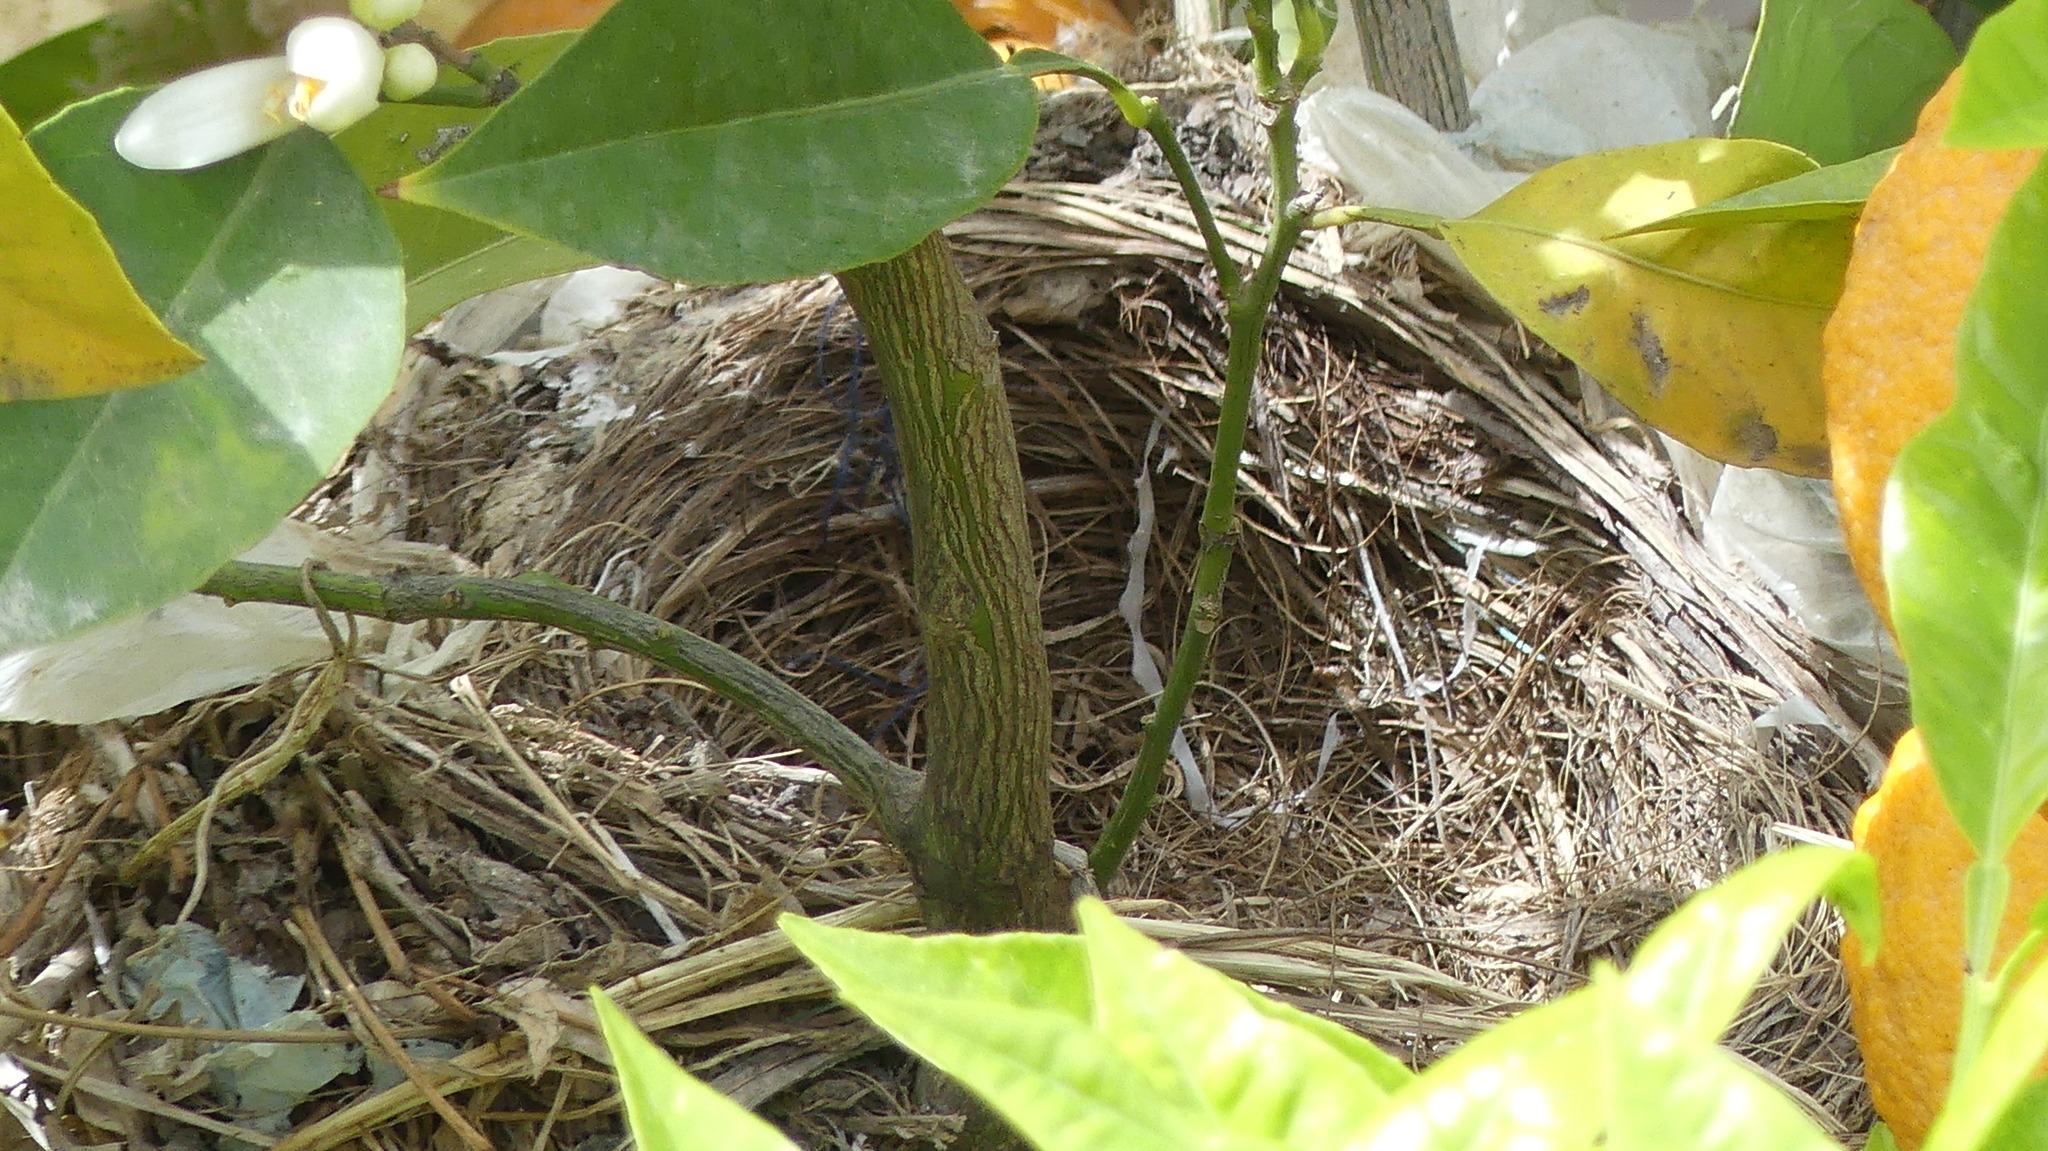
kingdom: Animalia
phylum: Chordata
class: Aves
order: Passeriformes
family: Turdidae
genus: Turdus
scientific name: Turdus merula
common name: Common blackbird
